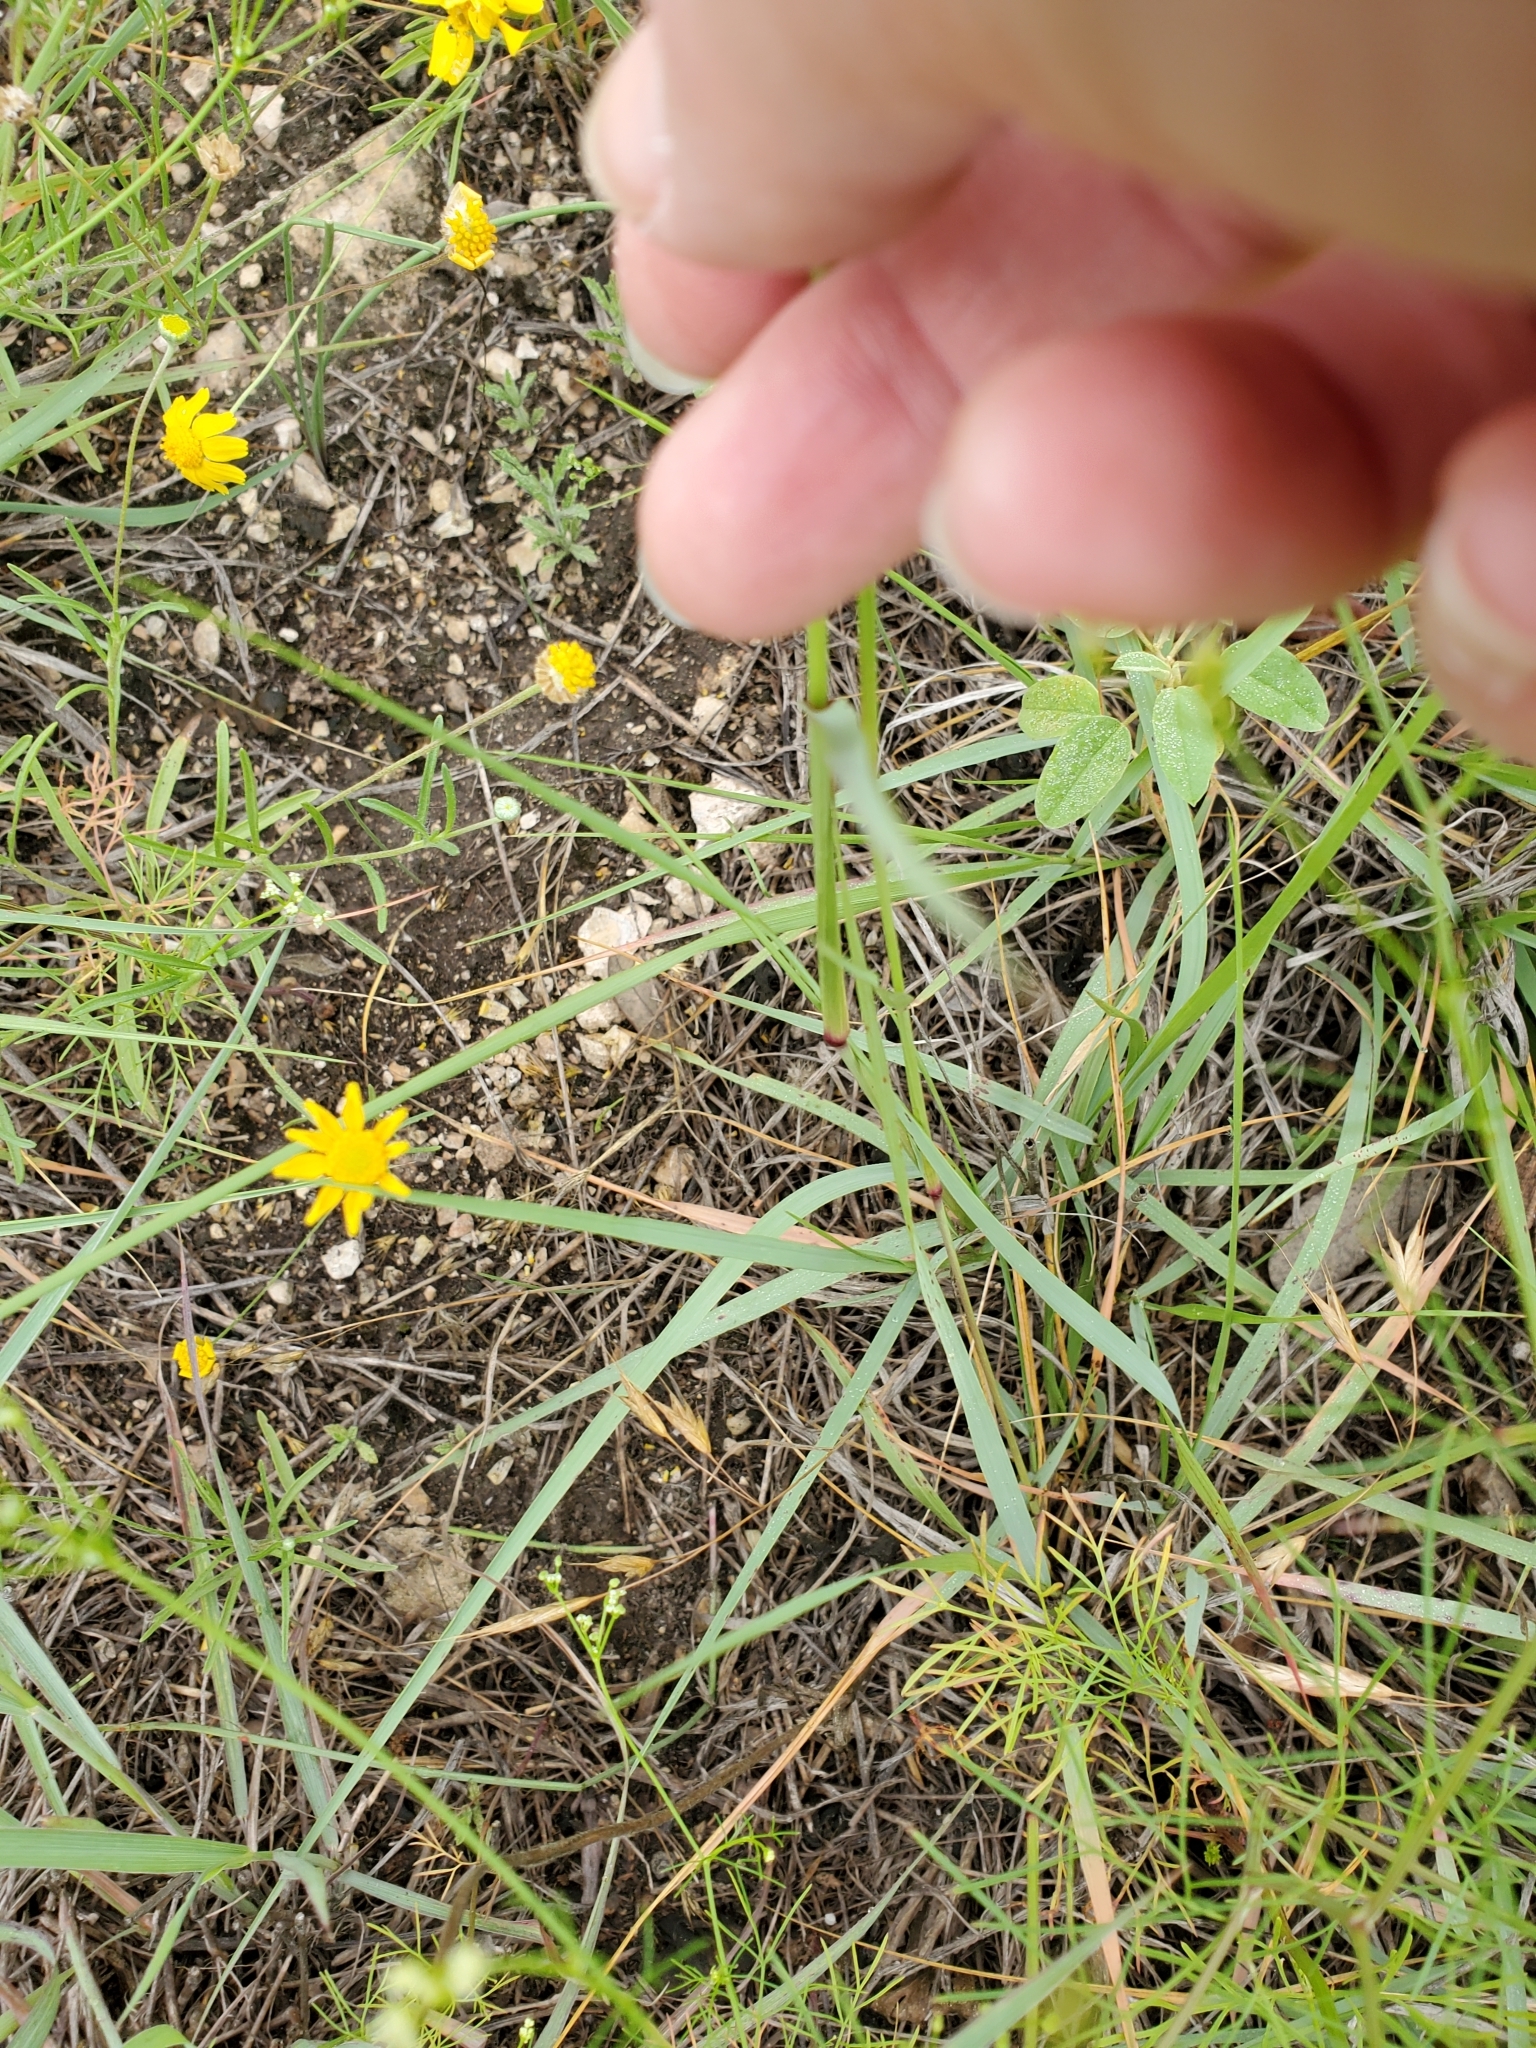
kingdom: Plantae
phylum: Tracheophyta
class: Liliopsida
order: Poales
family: Poaceae
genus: Tridens
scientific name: Tridens albescens
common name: White tridens
